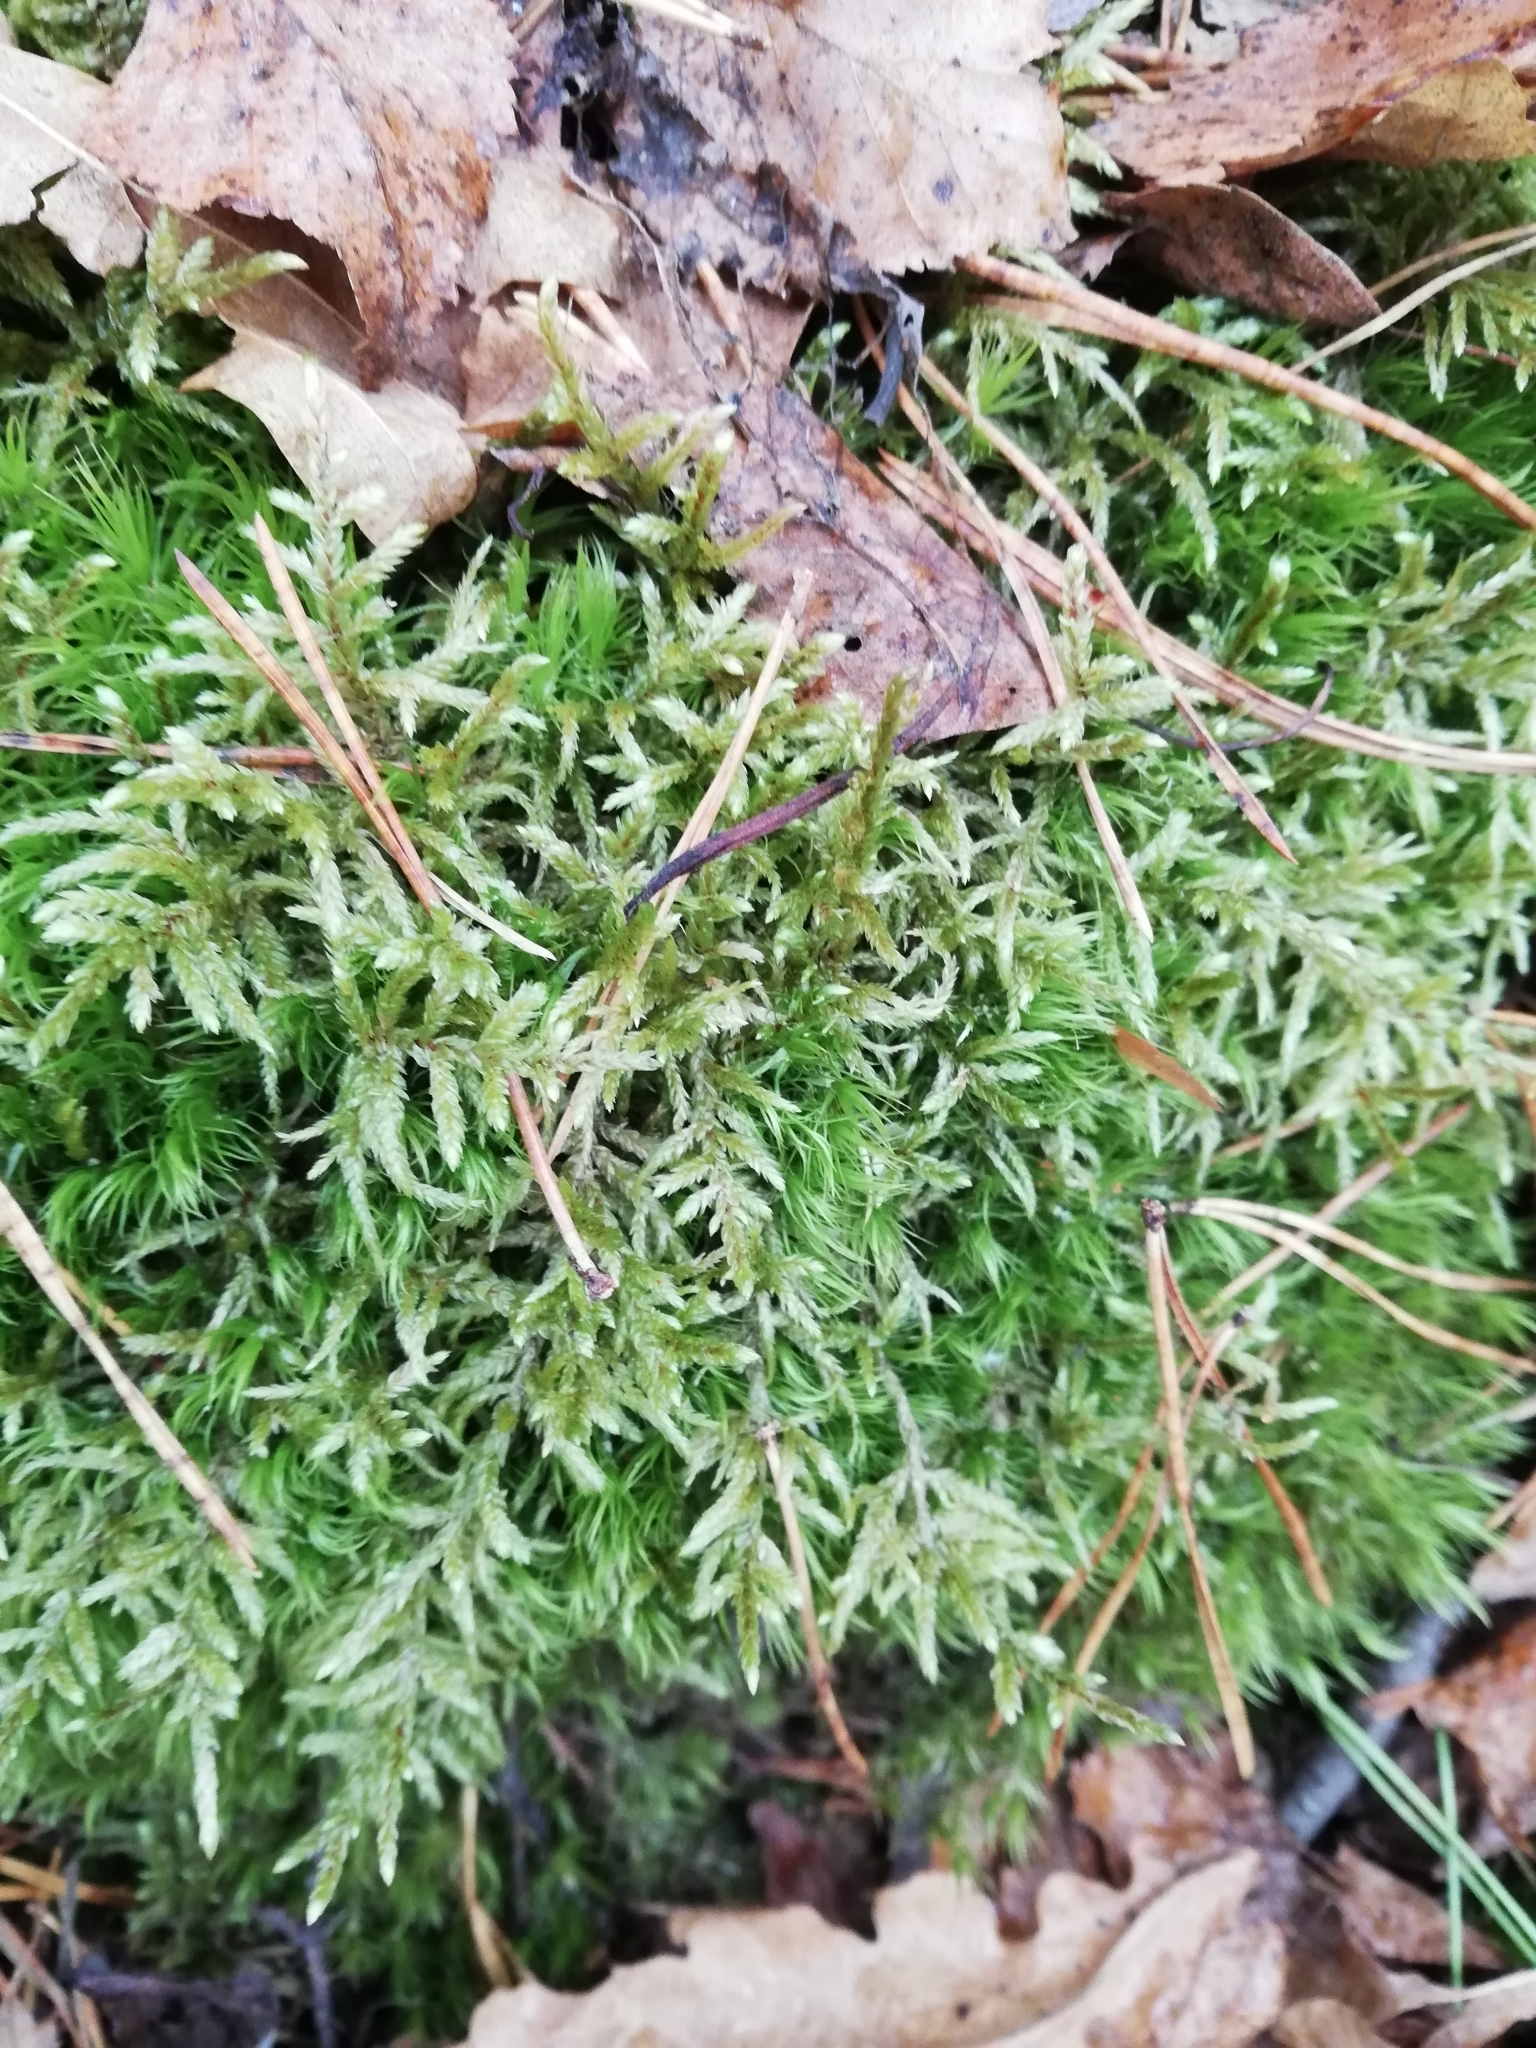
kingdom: Plantae
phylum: Bryophyta
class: Bryopsida
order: Hypnales
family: Hylocomiaceae
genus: Pleurozium
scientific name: Pleurozium schreberi
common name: Red-stemmed feather moss
